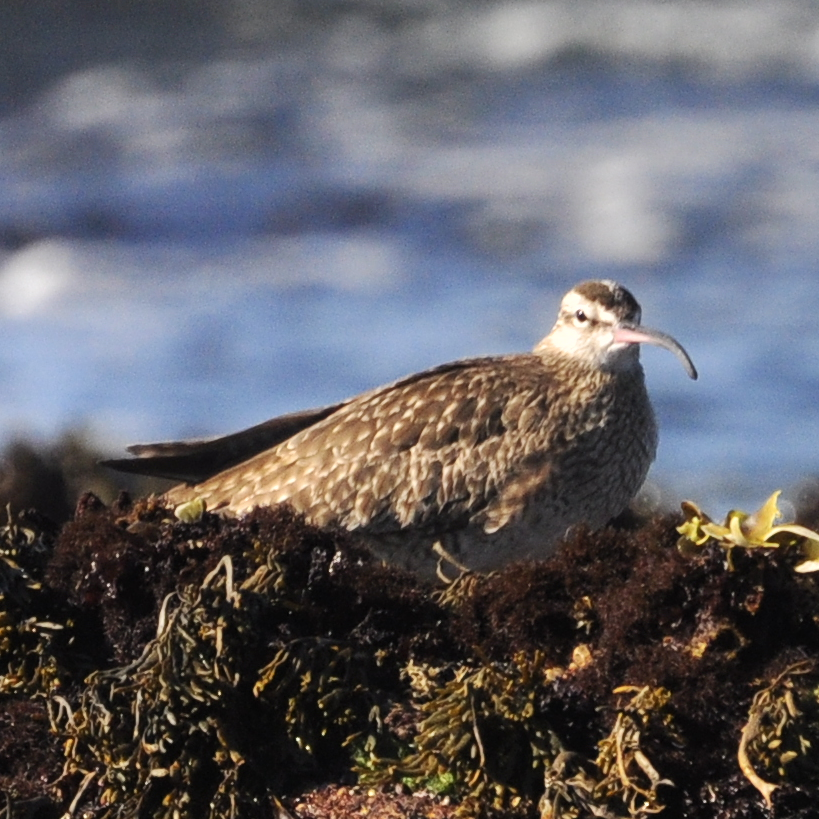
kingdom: Animalia
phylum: Chordata
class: Aves
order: Charadriiformes
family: Scolopacidae
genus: Numenius
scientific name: Numenius phaeopus
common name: Whimbrel
